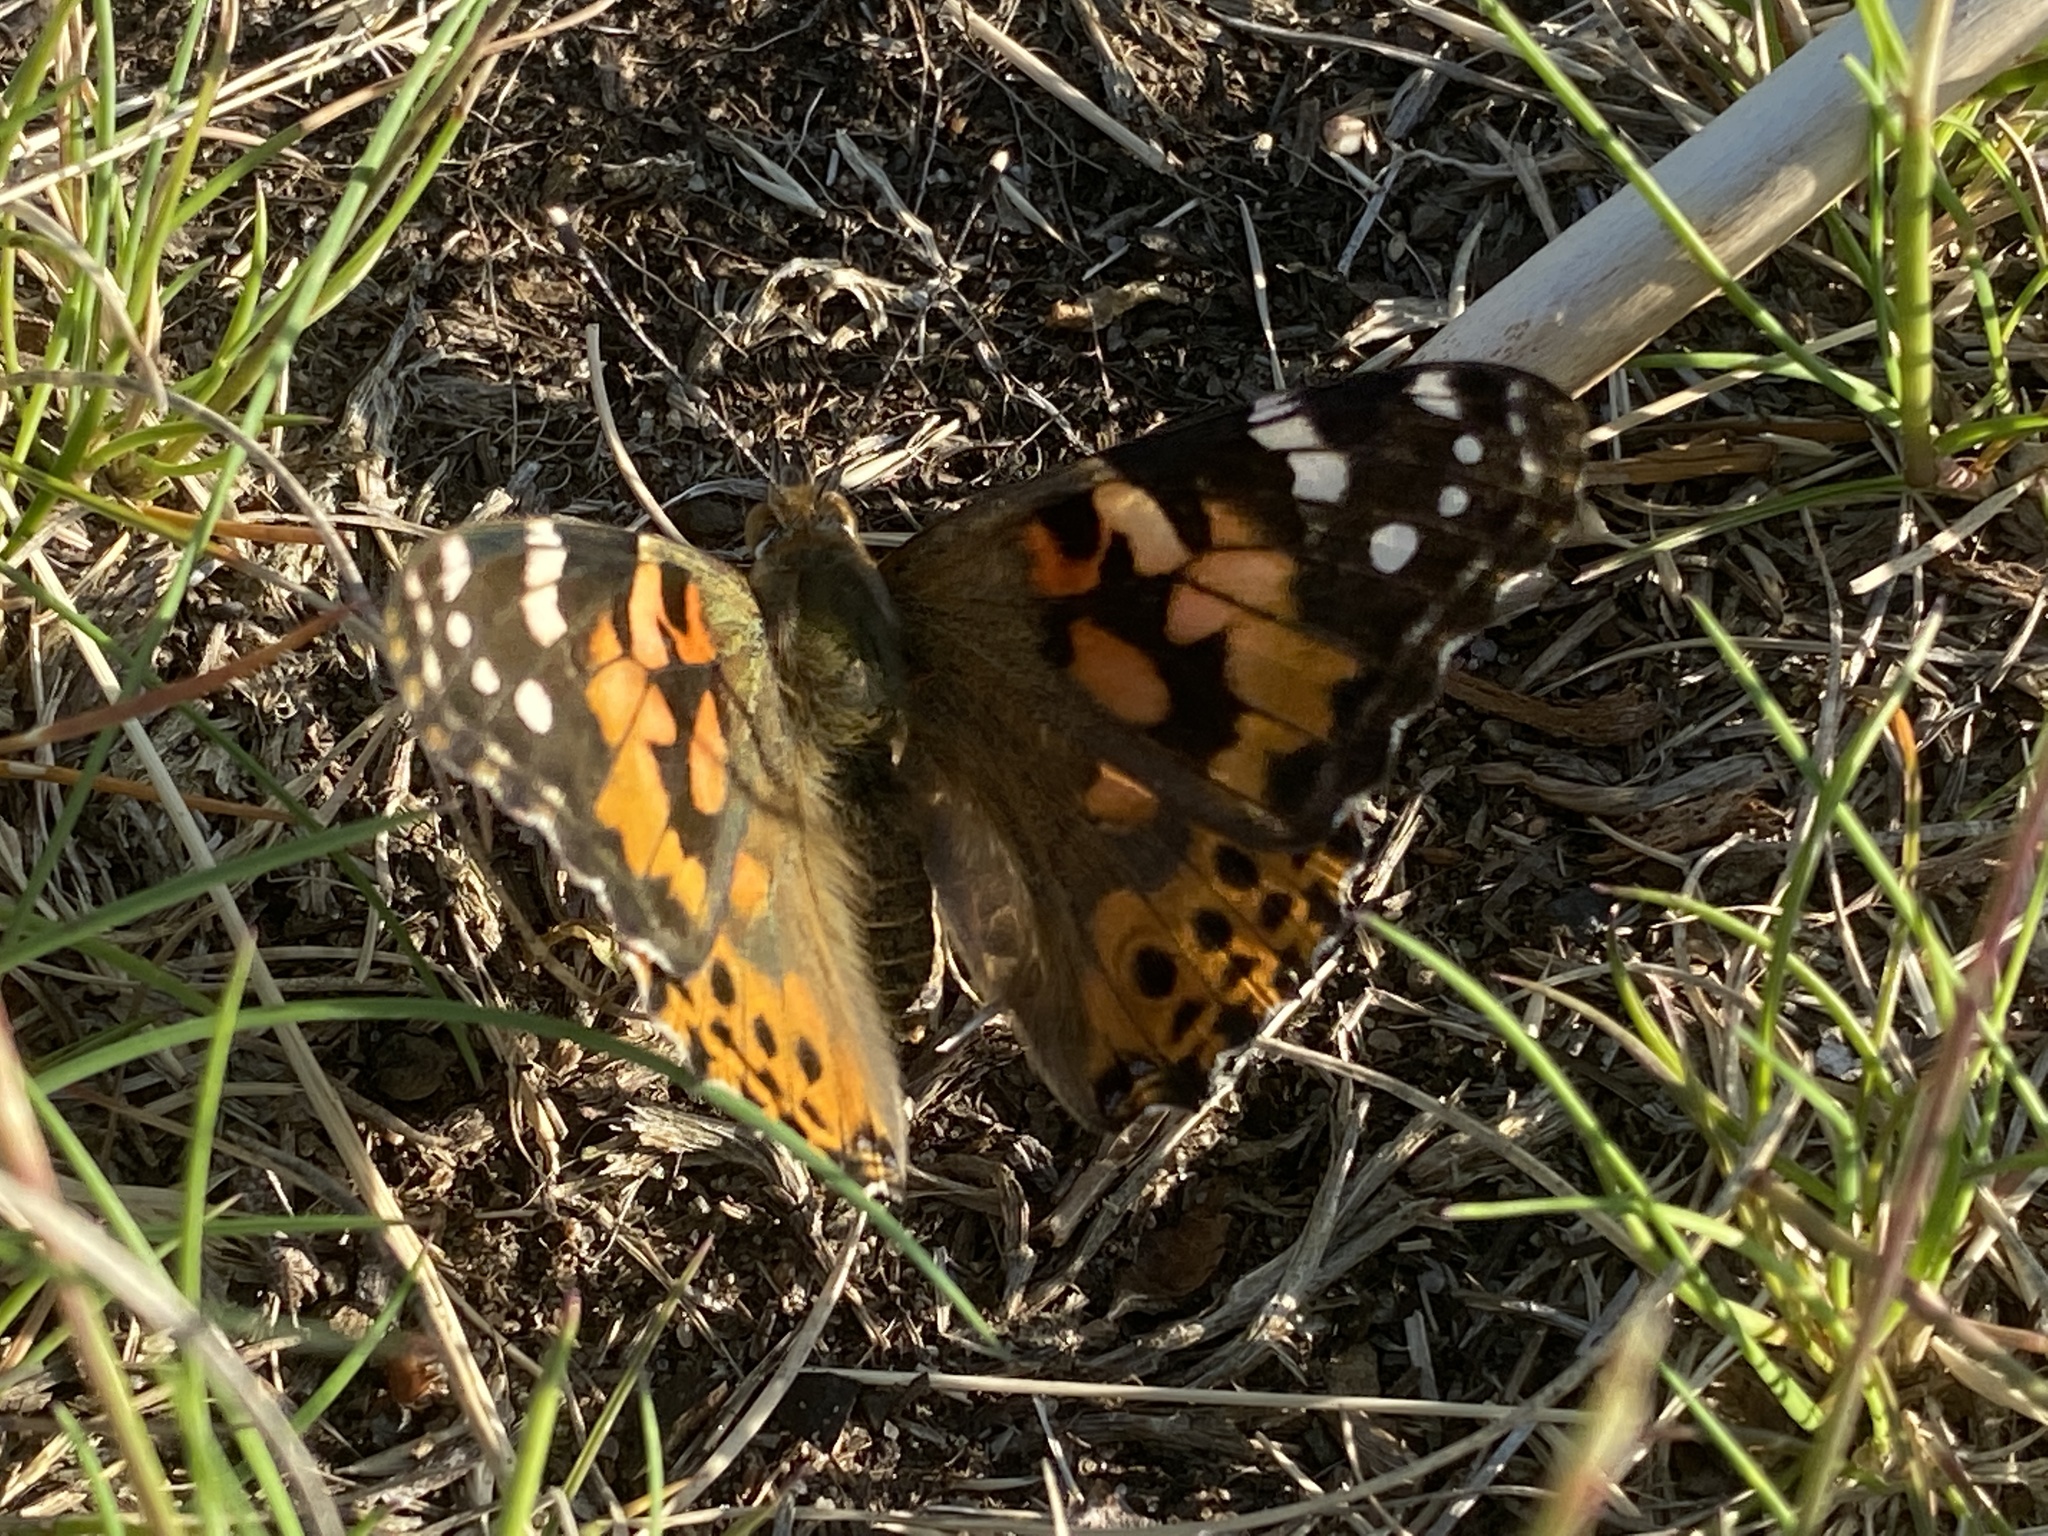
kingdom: Animalia
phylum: Arthropoda
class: Insecta
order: Lepidoptera
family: Nymphalidae
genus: Vanessa
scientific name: Vanessa cardui
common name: Painted lady
